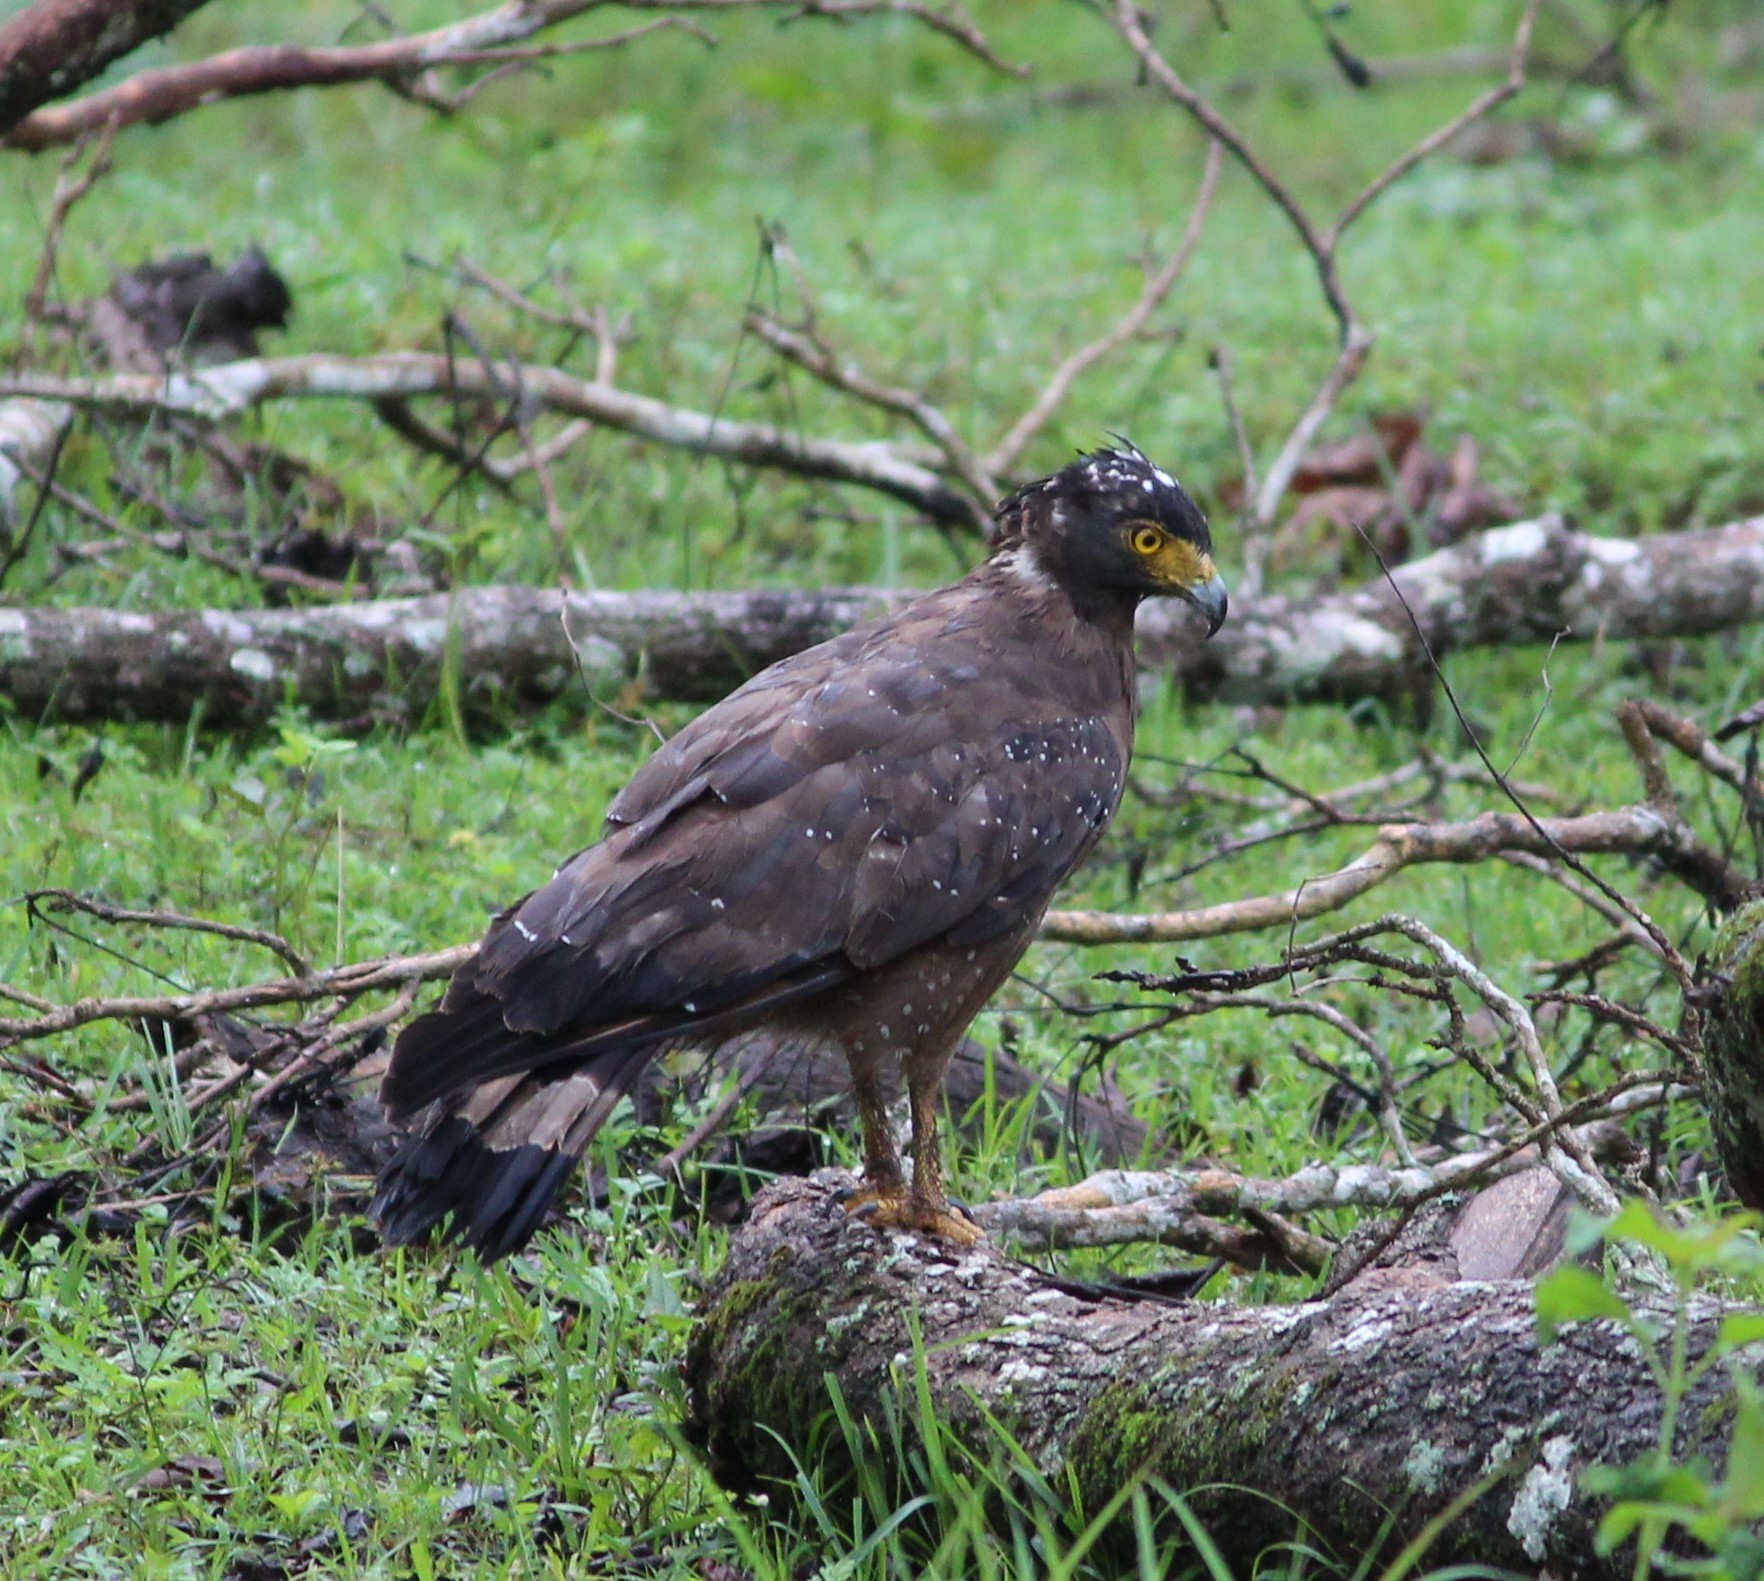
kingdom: Animalia
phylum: Chordata
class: Aves
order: Accipitriformes
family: Accipitridae
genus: Spilornis
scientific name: Spilornis cheela
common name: Crested serpent eagle
